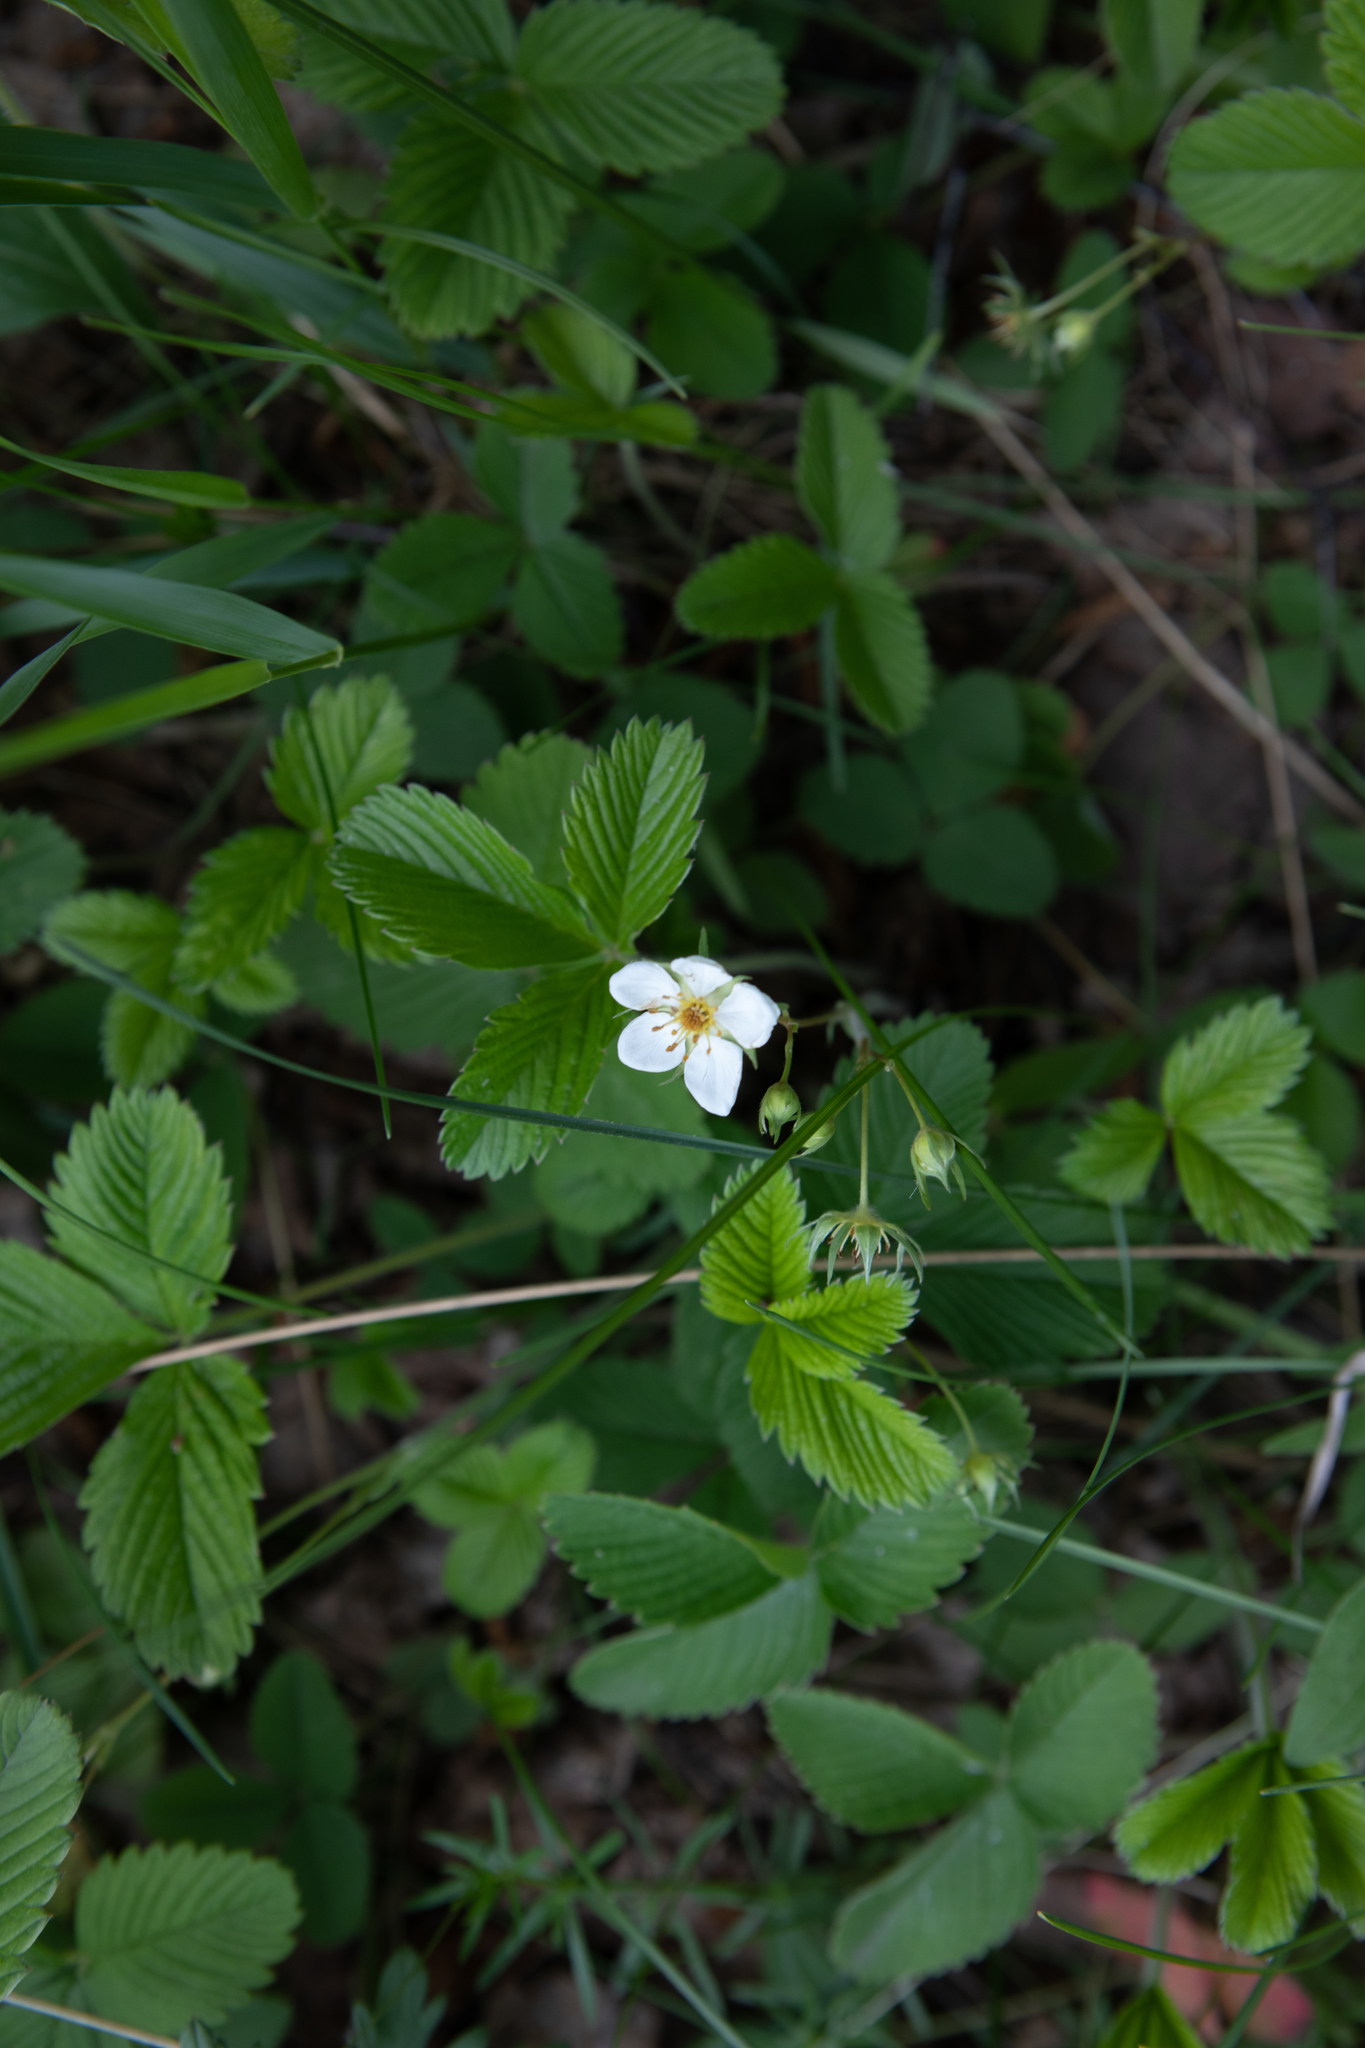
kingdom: Plantae
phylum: Tracheophyta
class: Magnoliopsida
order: Rosales
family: Rosaceae
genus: Fragaria
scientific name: Fragaria viridis
